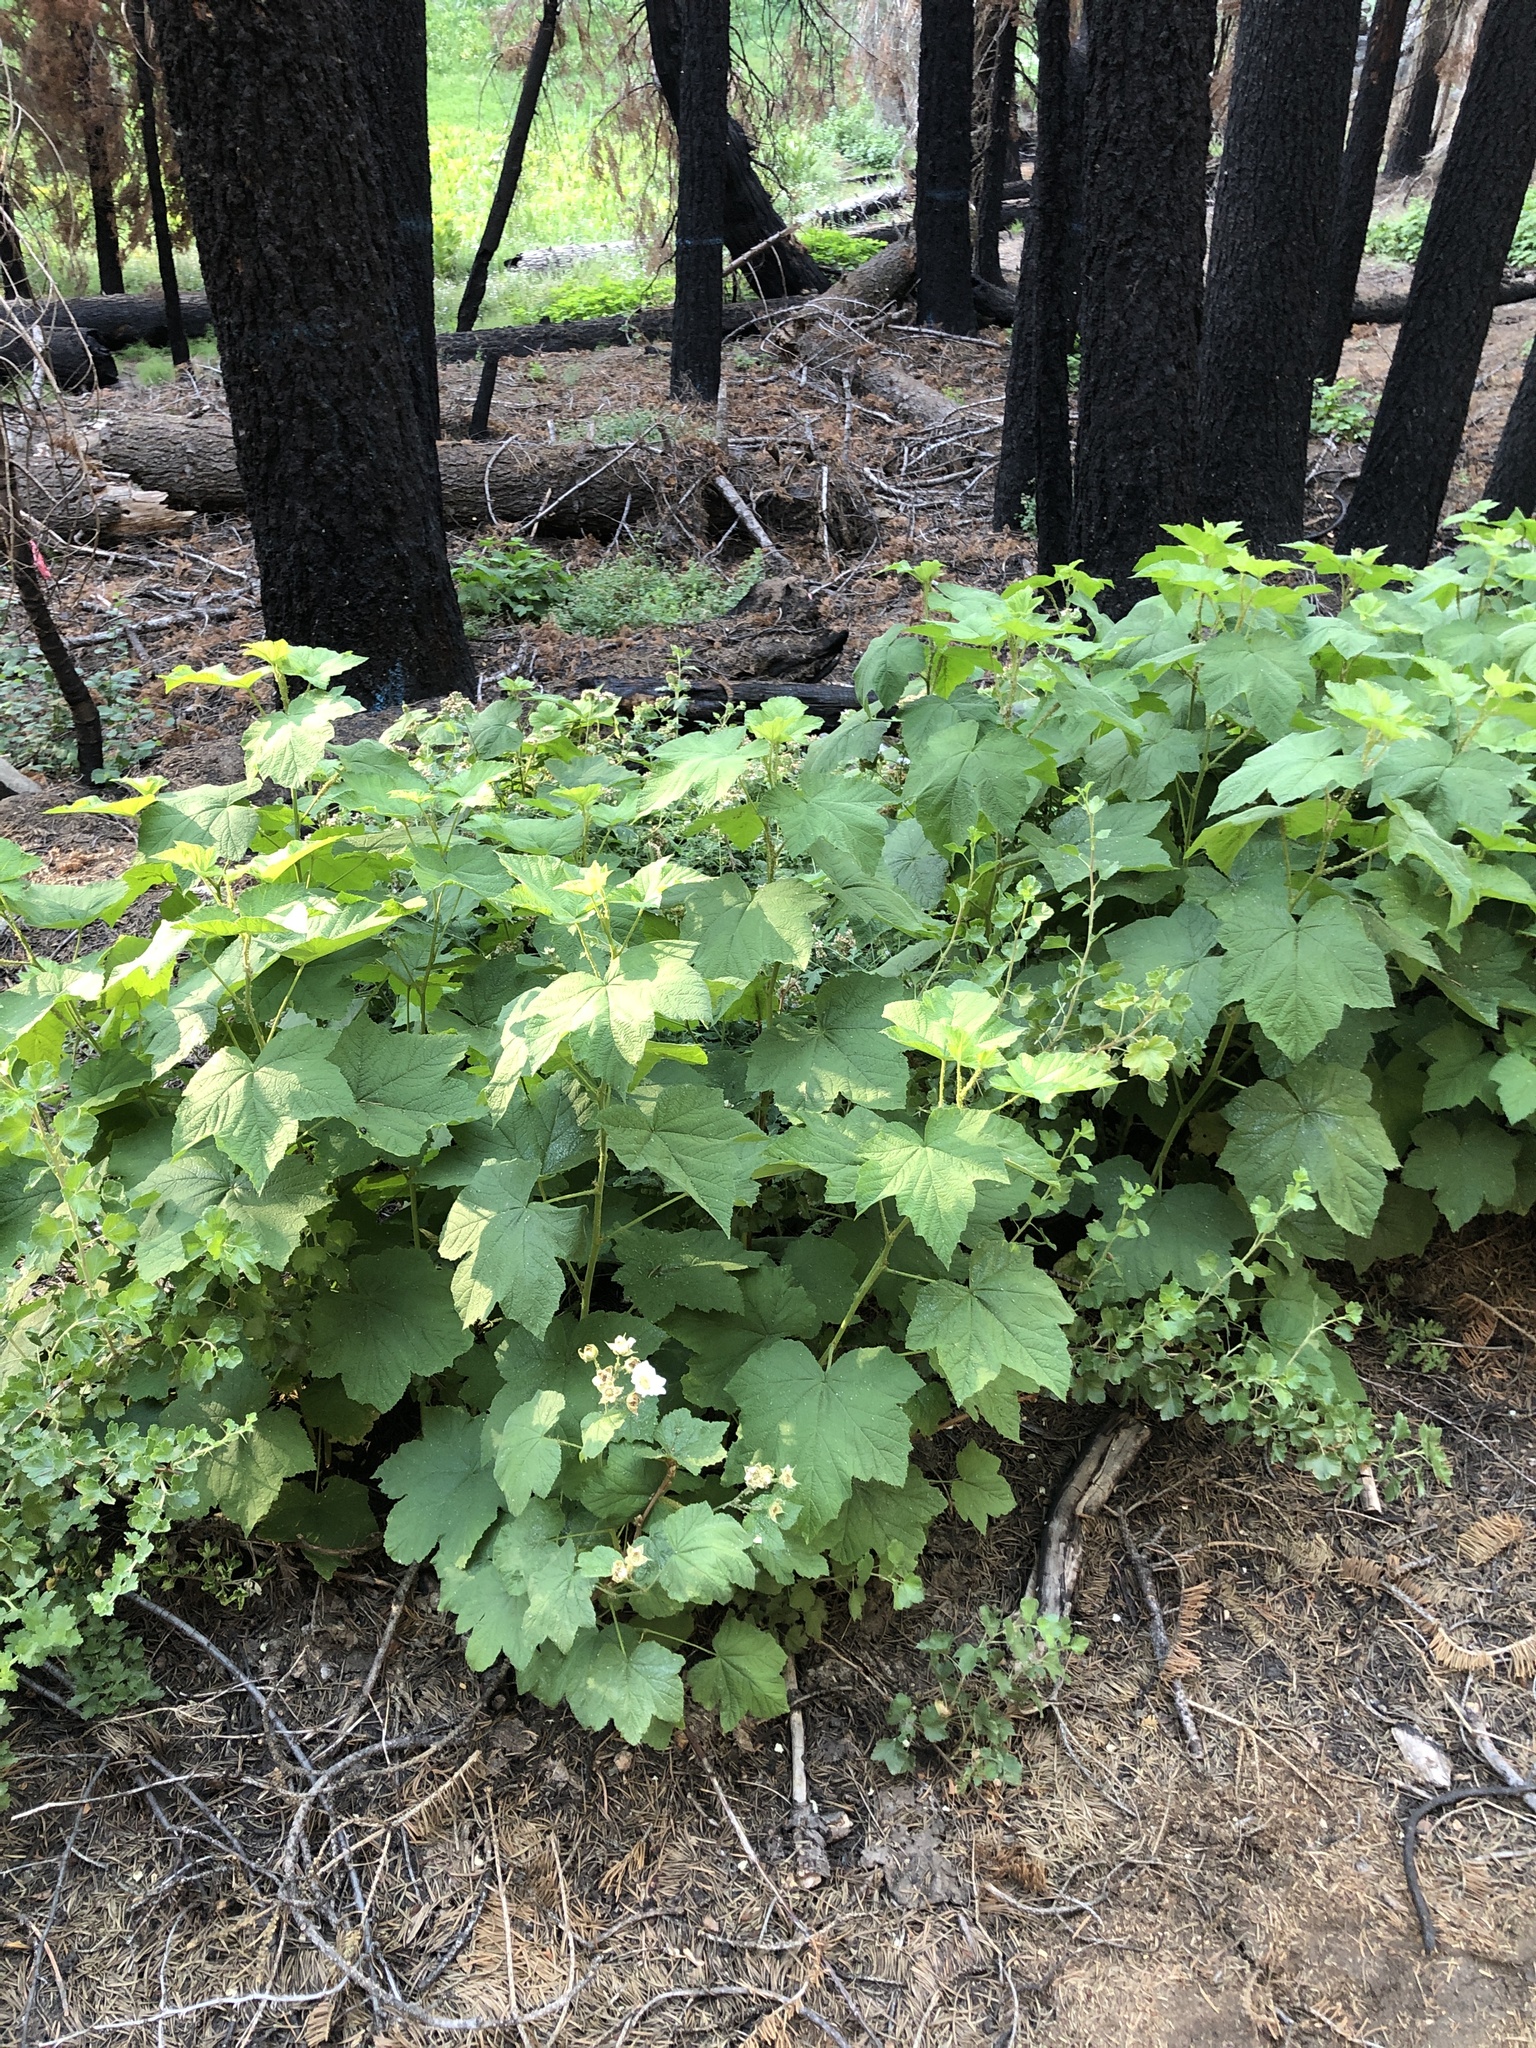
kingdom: Plantae
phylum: Tracheophyta
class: Magnoliopsida
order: Rosales
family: Rosaceae
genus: Rubus
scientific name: Rubus parviflorus
